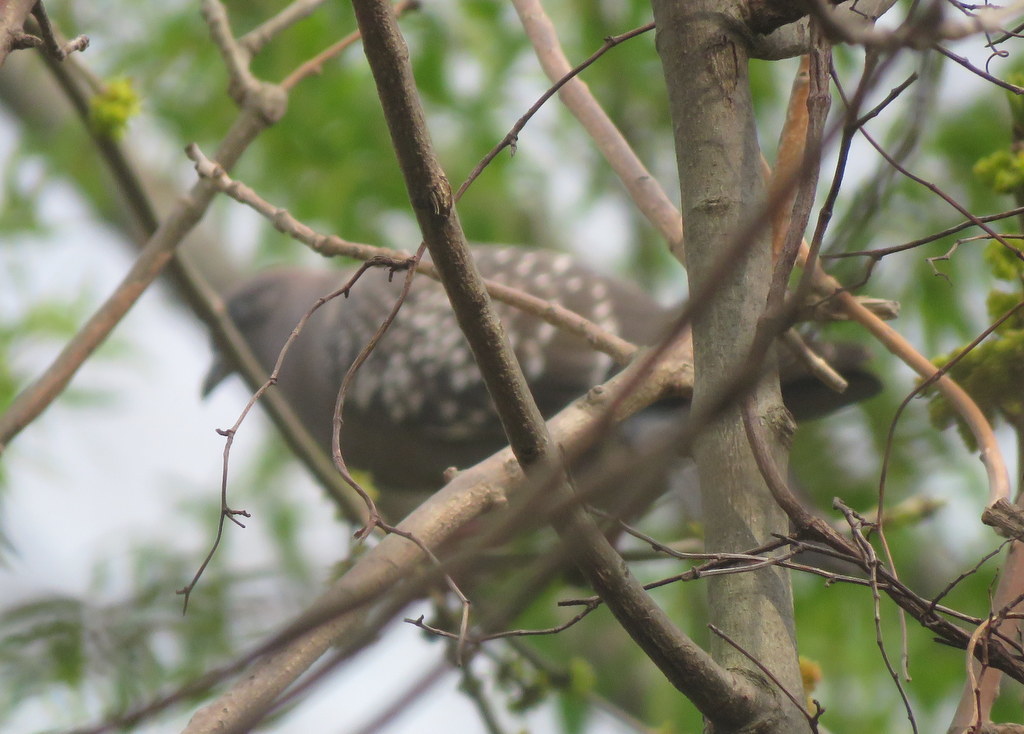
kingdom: Animalia
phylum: Chordata
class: Aves
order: Columbiformes
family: Columbidae
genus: Patagioenas
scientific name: Patagioenas maculosa
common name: Spot-winged pigeon
